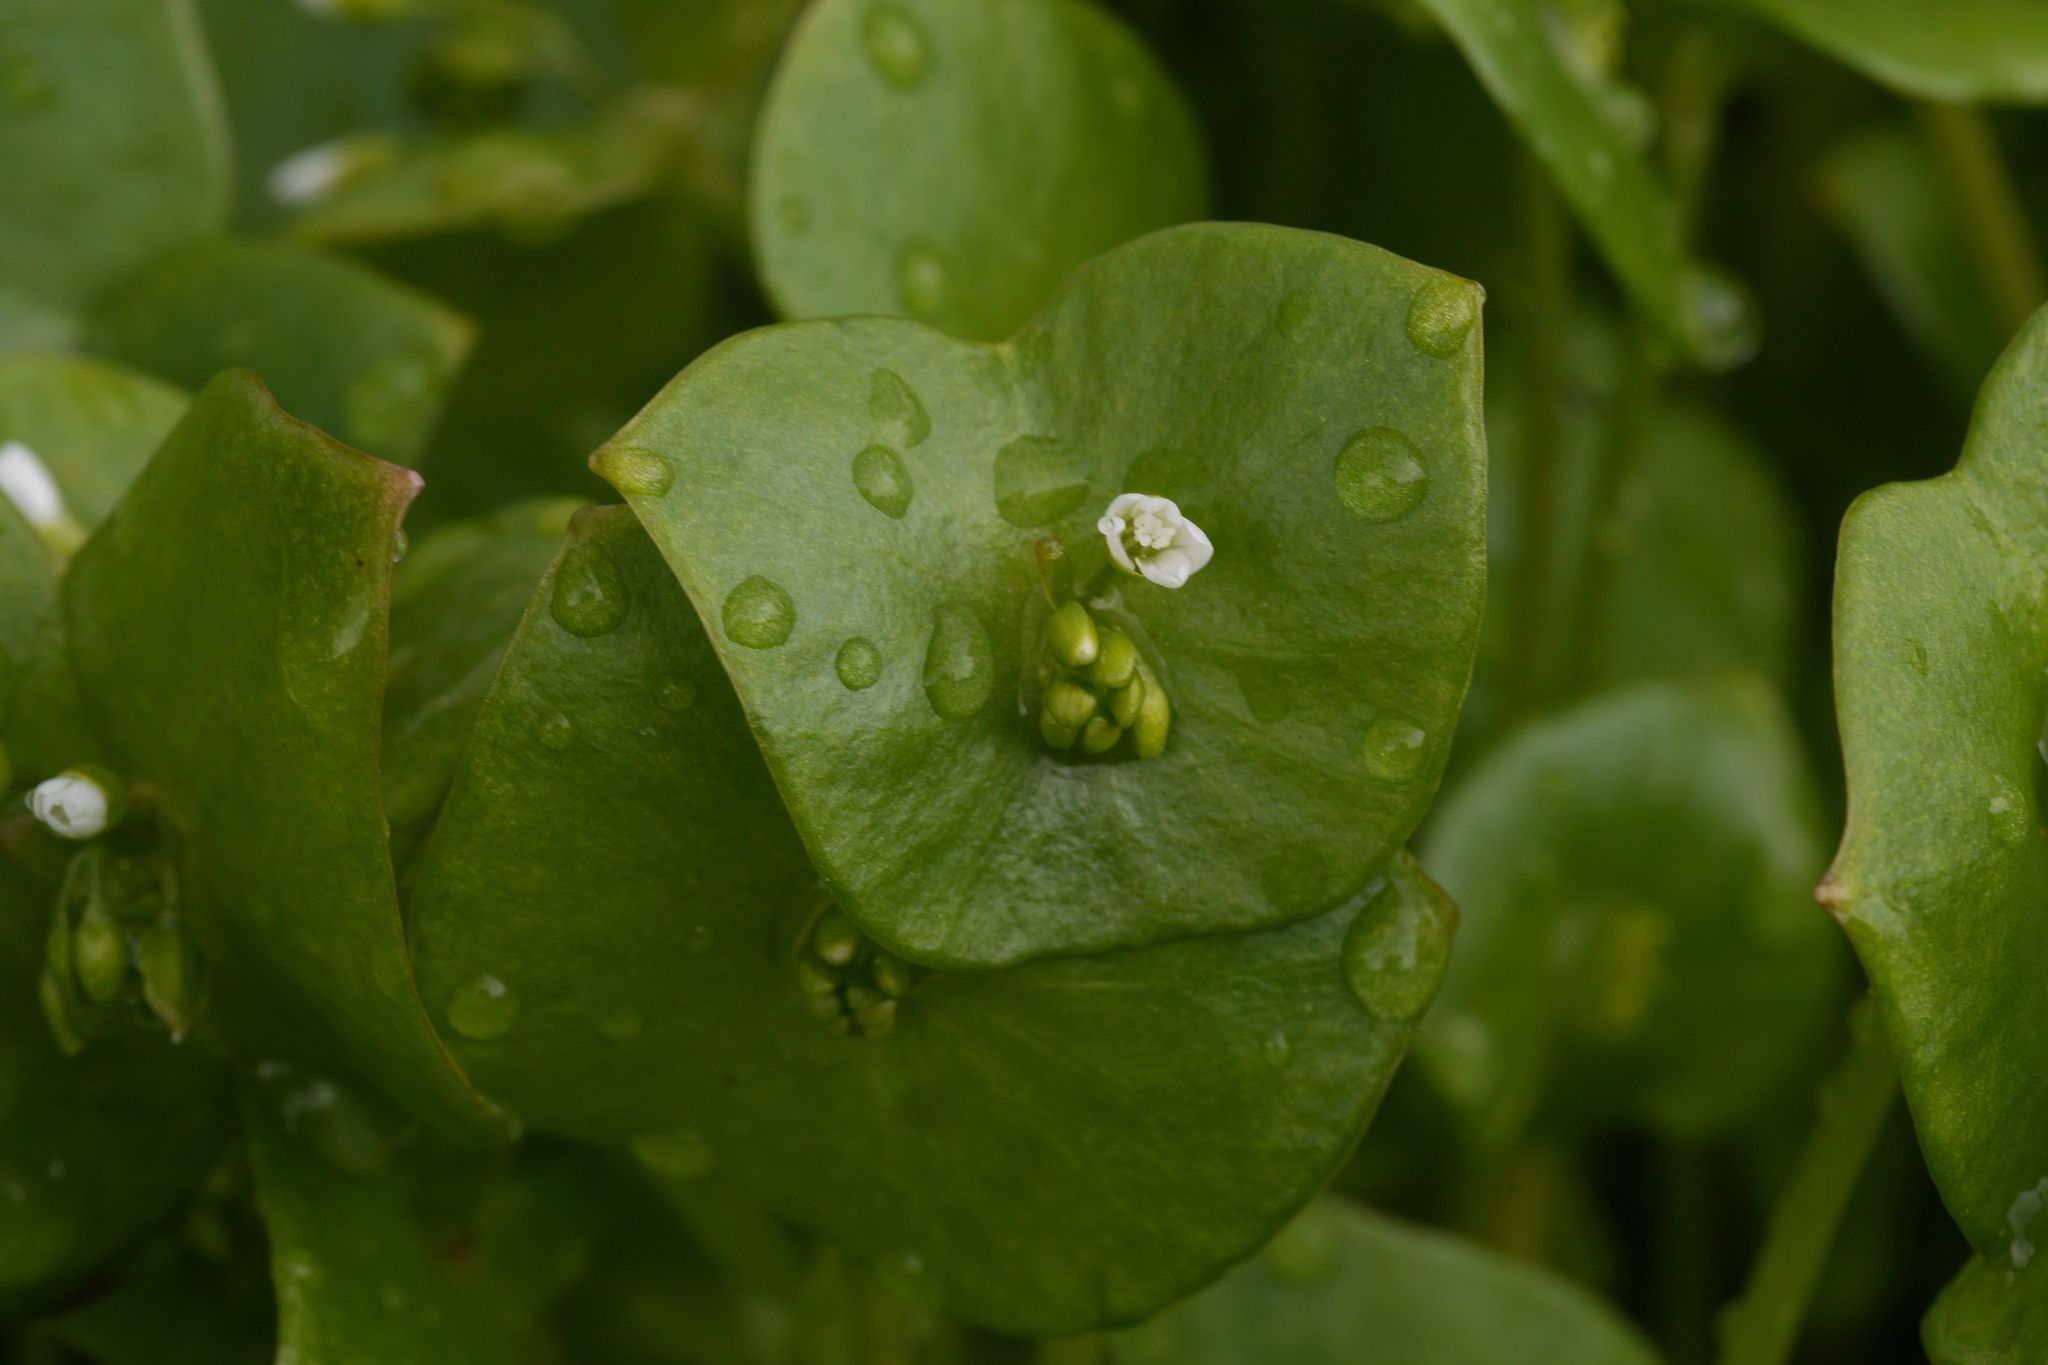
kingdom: Plantae
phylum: Tracheophyta
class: Magnoliopsida
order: Caryophyllales
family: Montiaceae
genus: Claytonia
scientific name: Claytonia perfoliata
